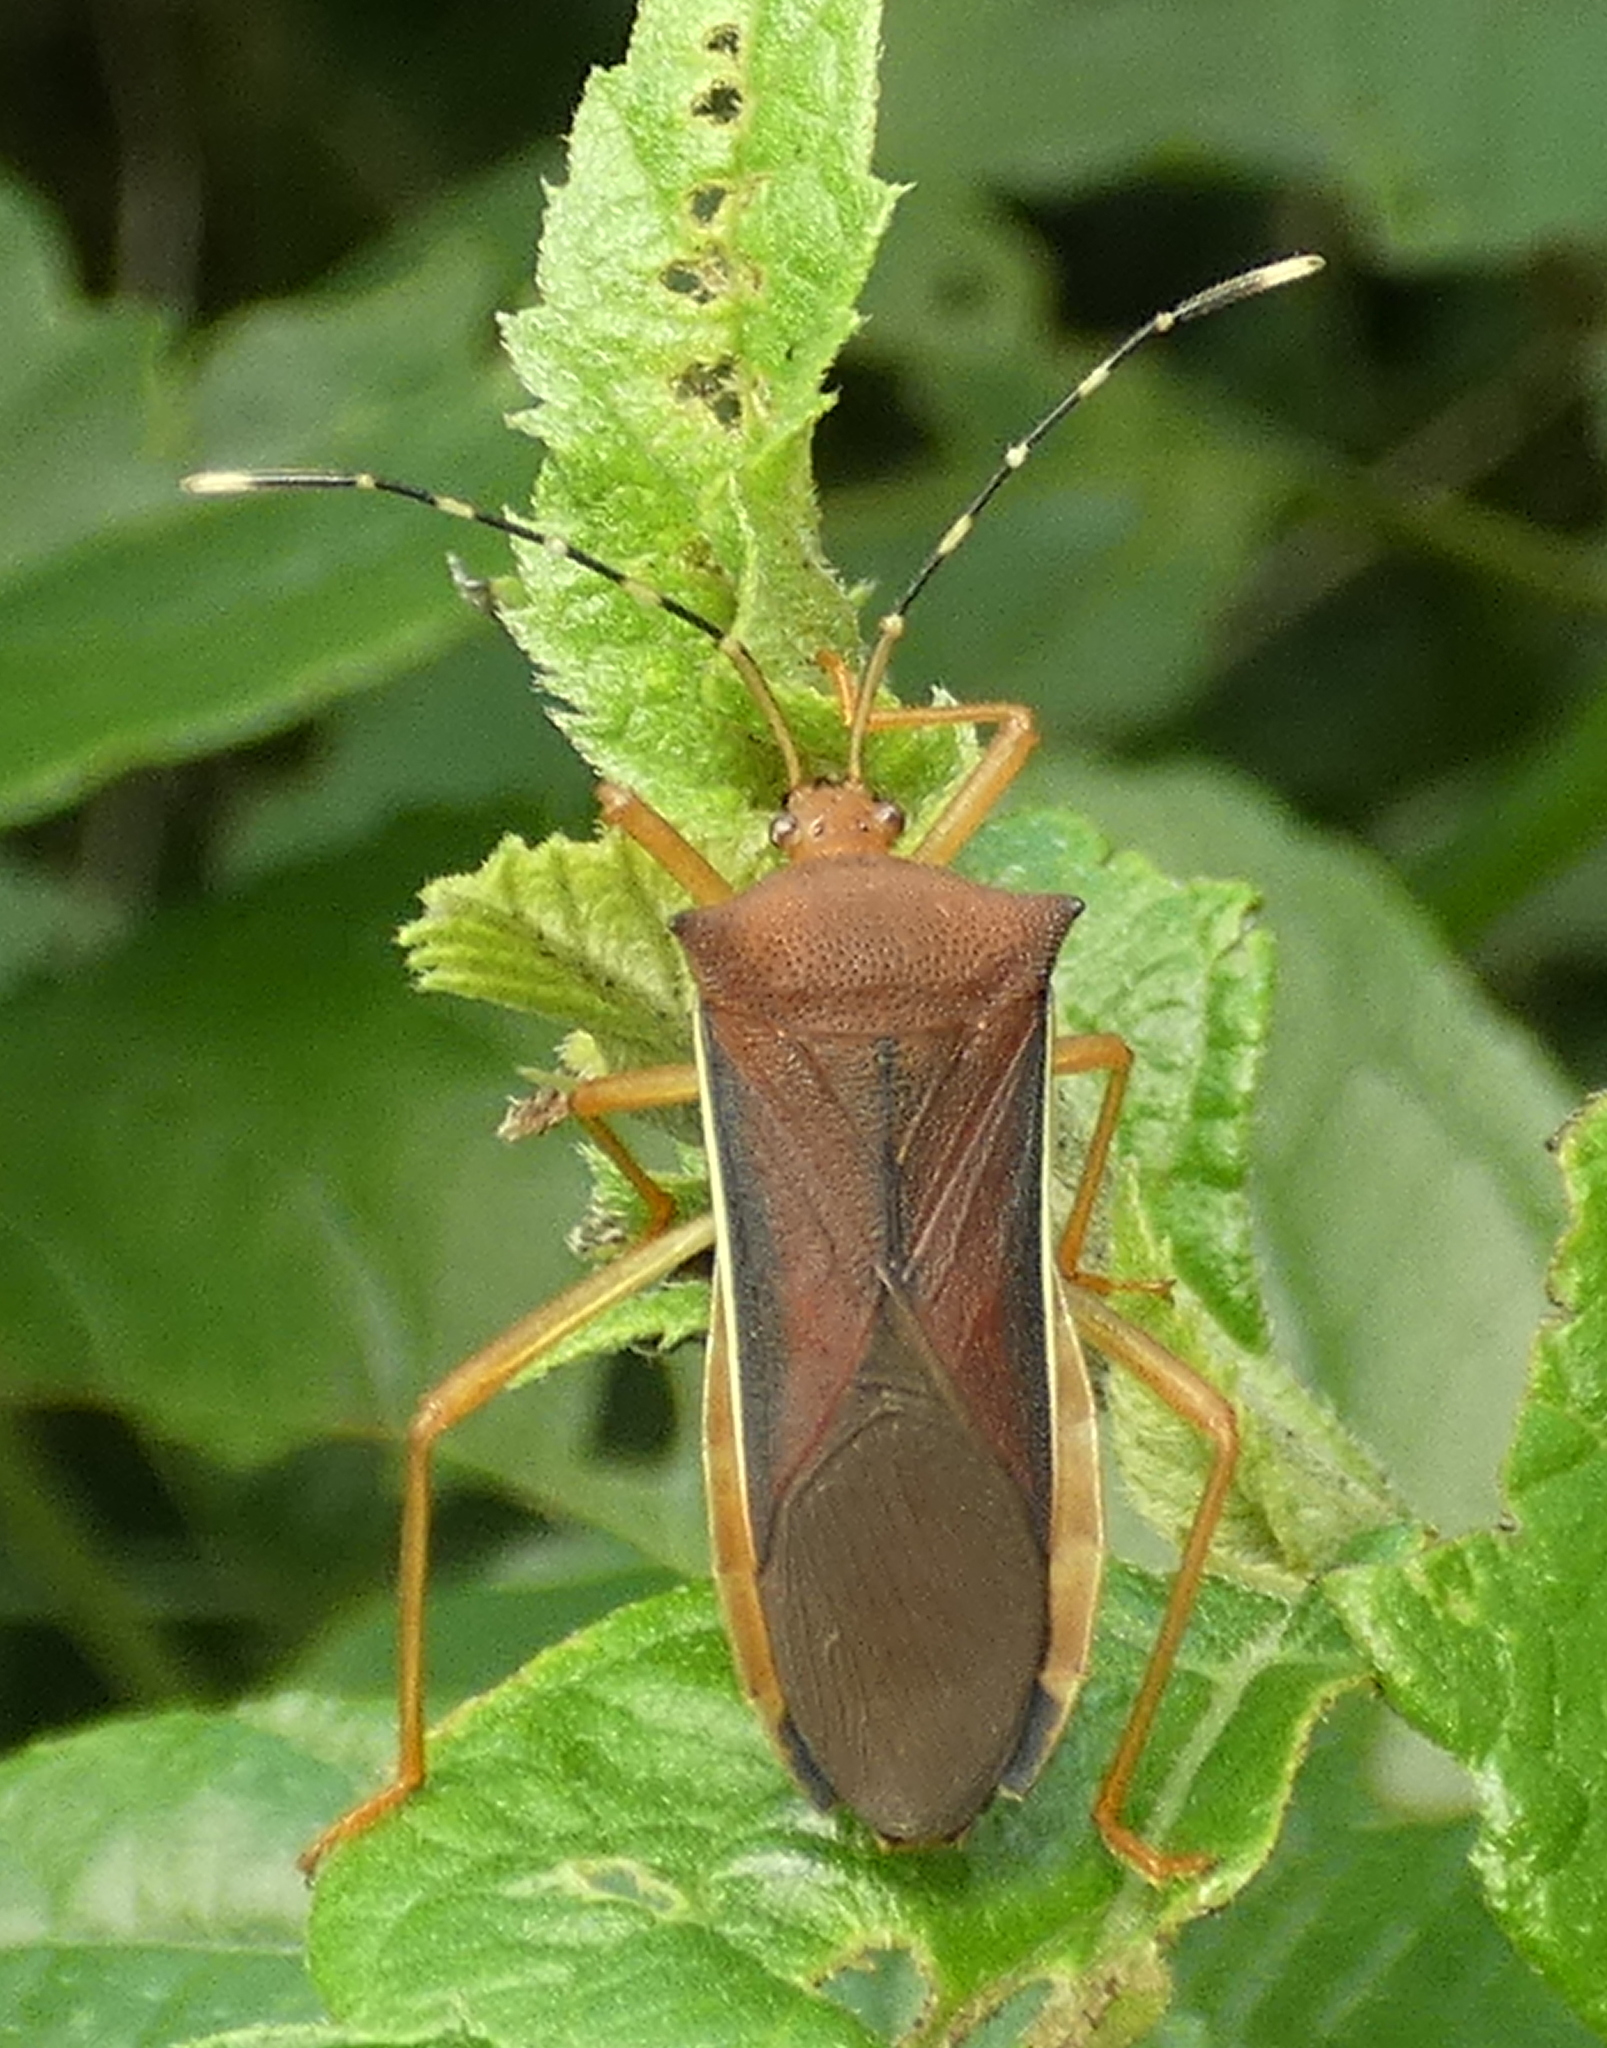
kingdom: Animalia
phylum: Arthropoda
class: Insecta
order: Hemiptera
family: Coreidae
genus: Anasa
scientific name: Anasa varicornis
